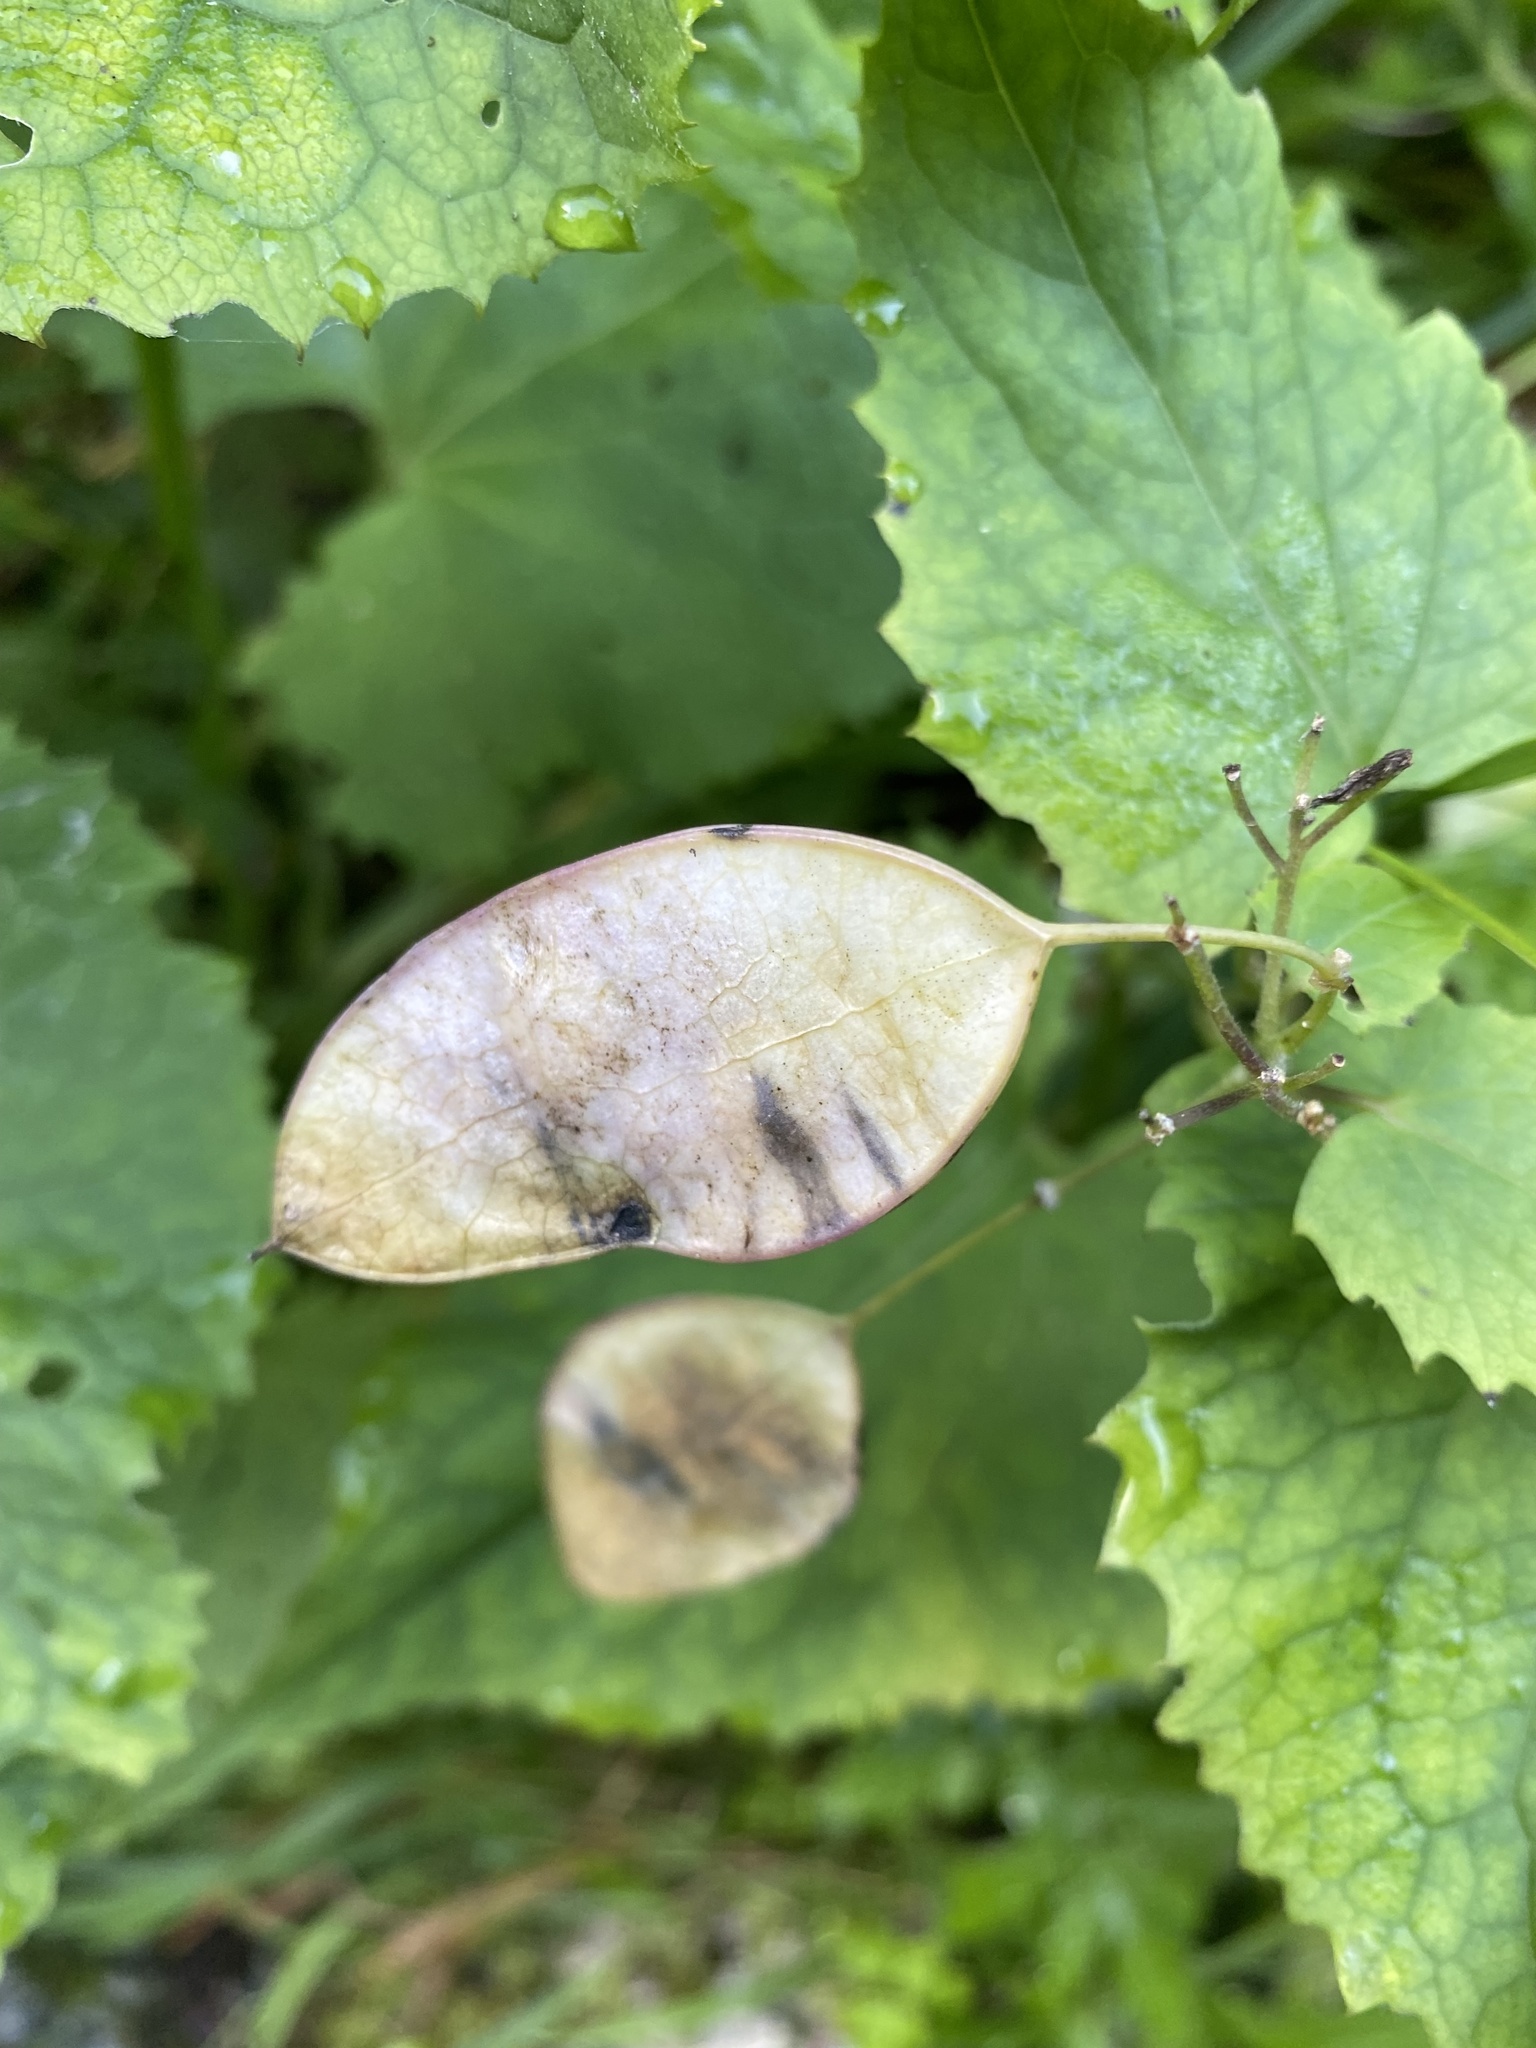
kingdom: Plantae
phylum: Tracheophyta
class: Magnoliopsida
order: Brassicales
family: Brassicaceae
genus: Lunaria
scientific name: Lunaria rediviva
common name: Perennial honesty
